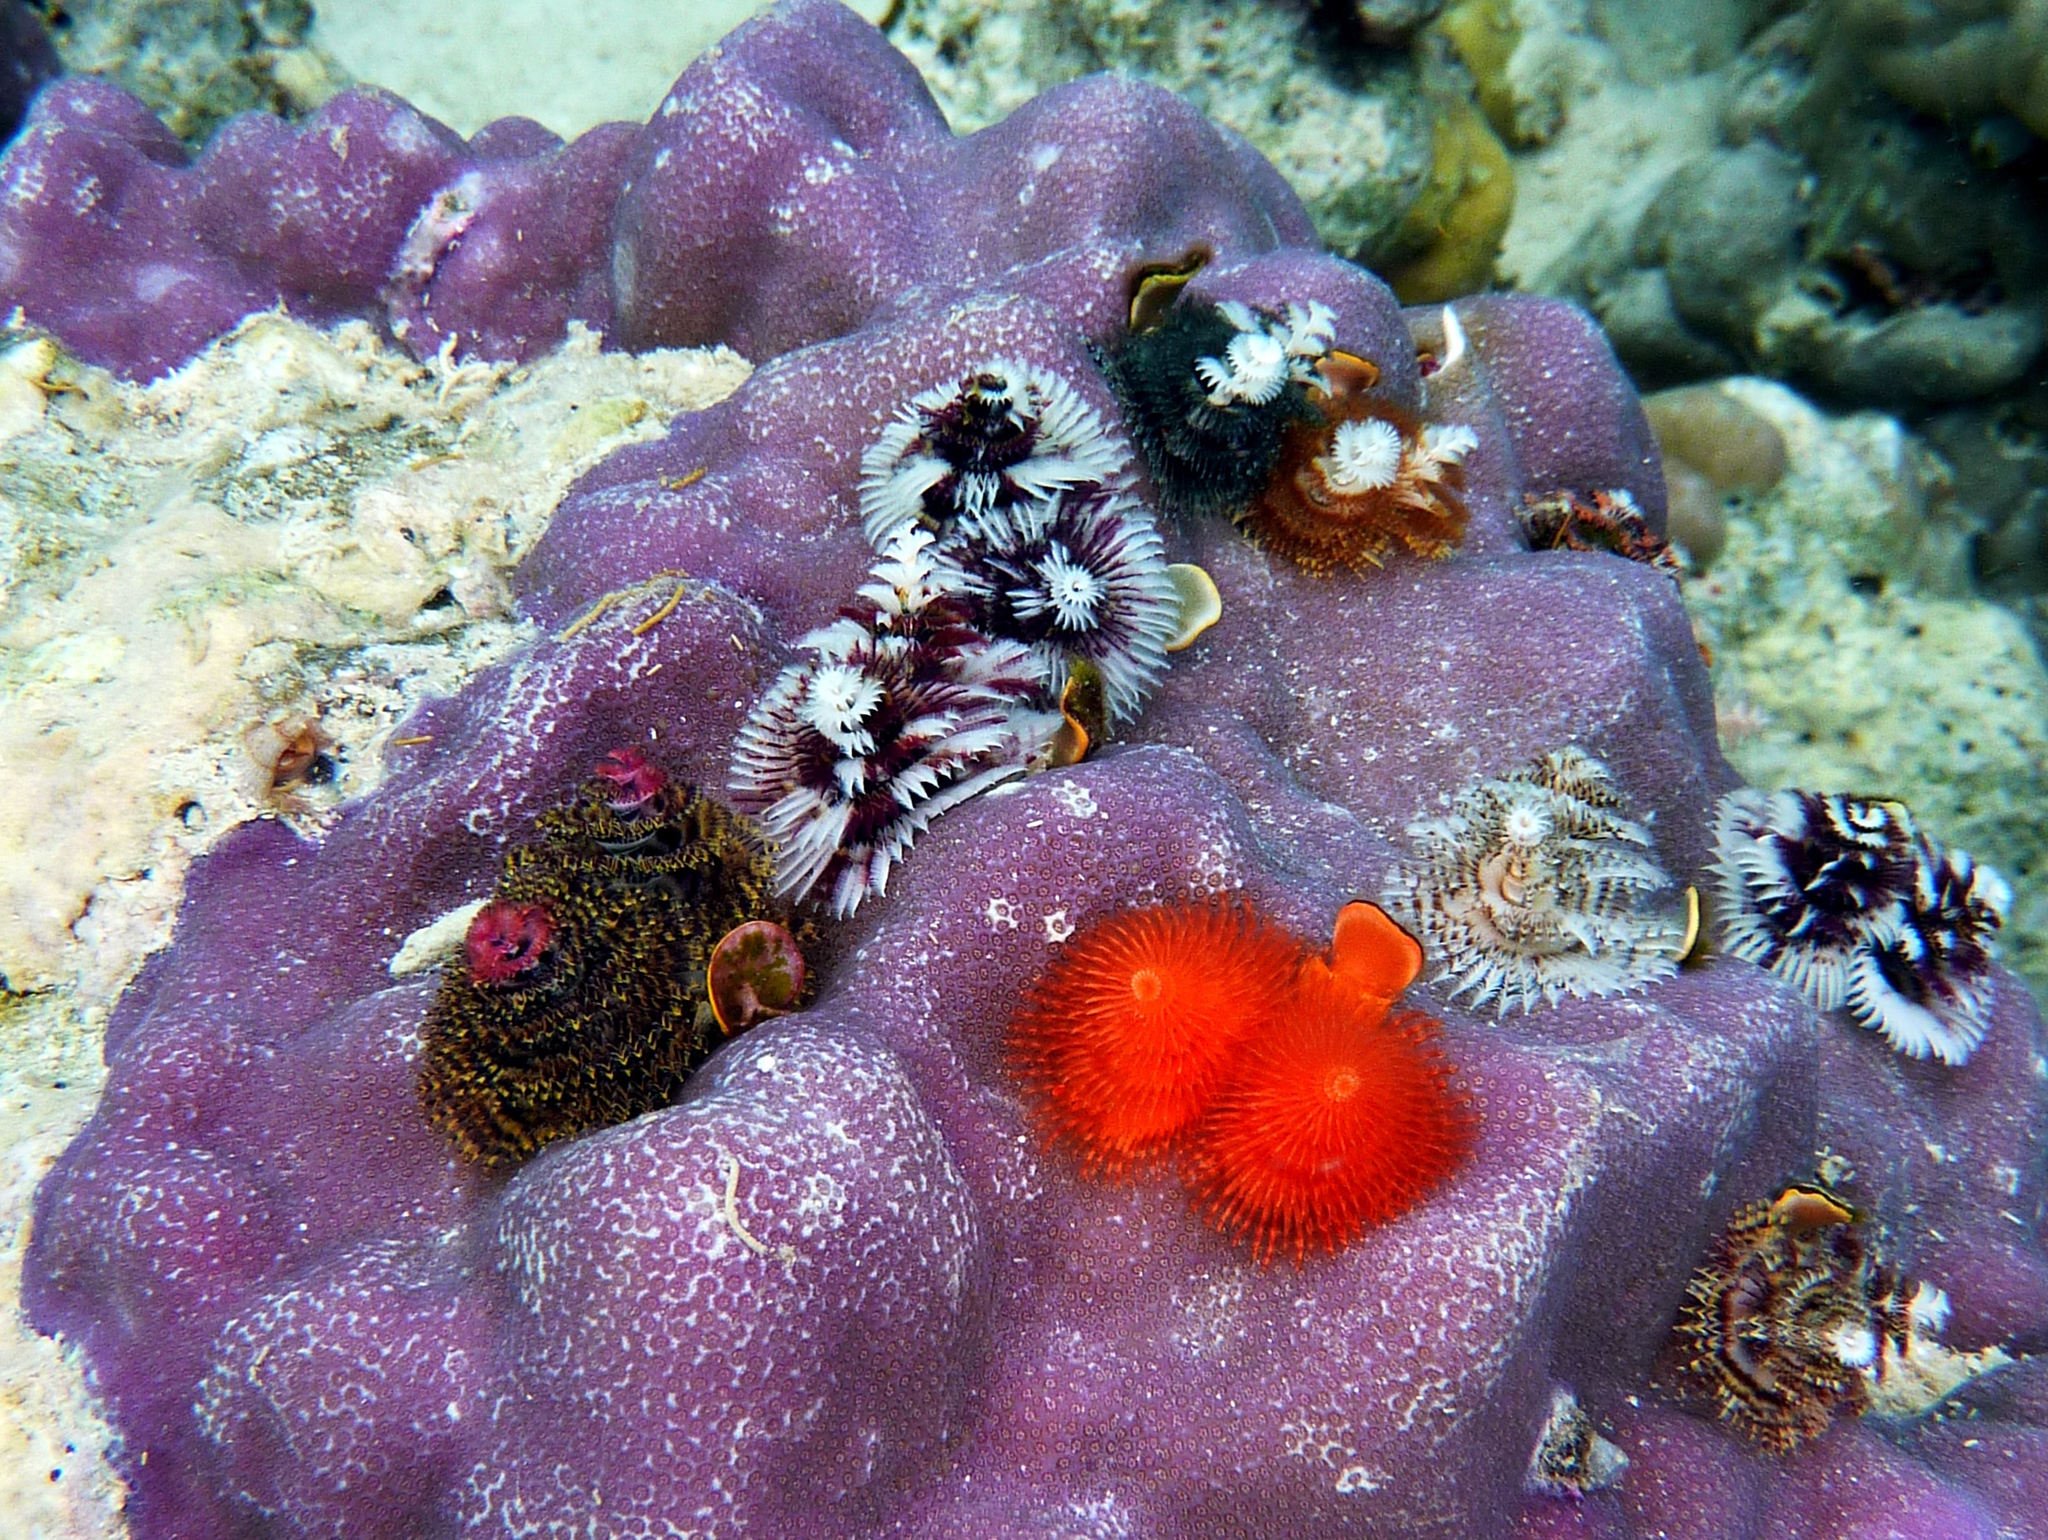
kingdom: Animalia
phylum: Annelida
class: Polychaeta
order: Sabellida
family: Serpulidae
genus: Spirobranchus
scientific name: Spirobranchus corniculatus
